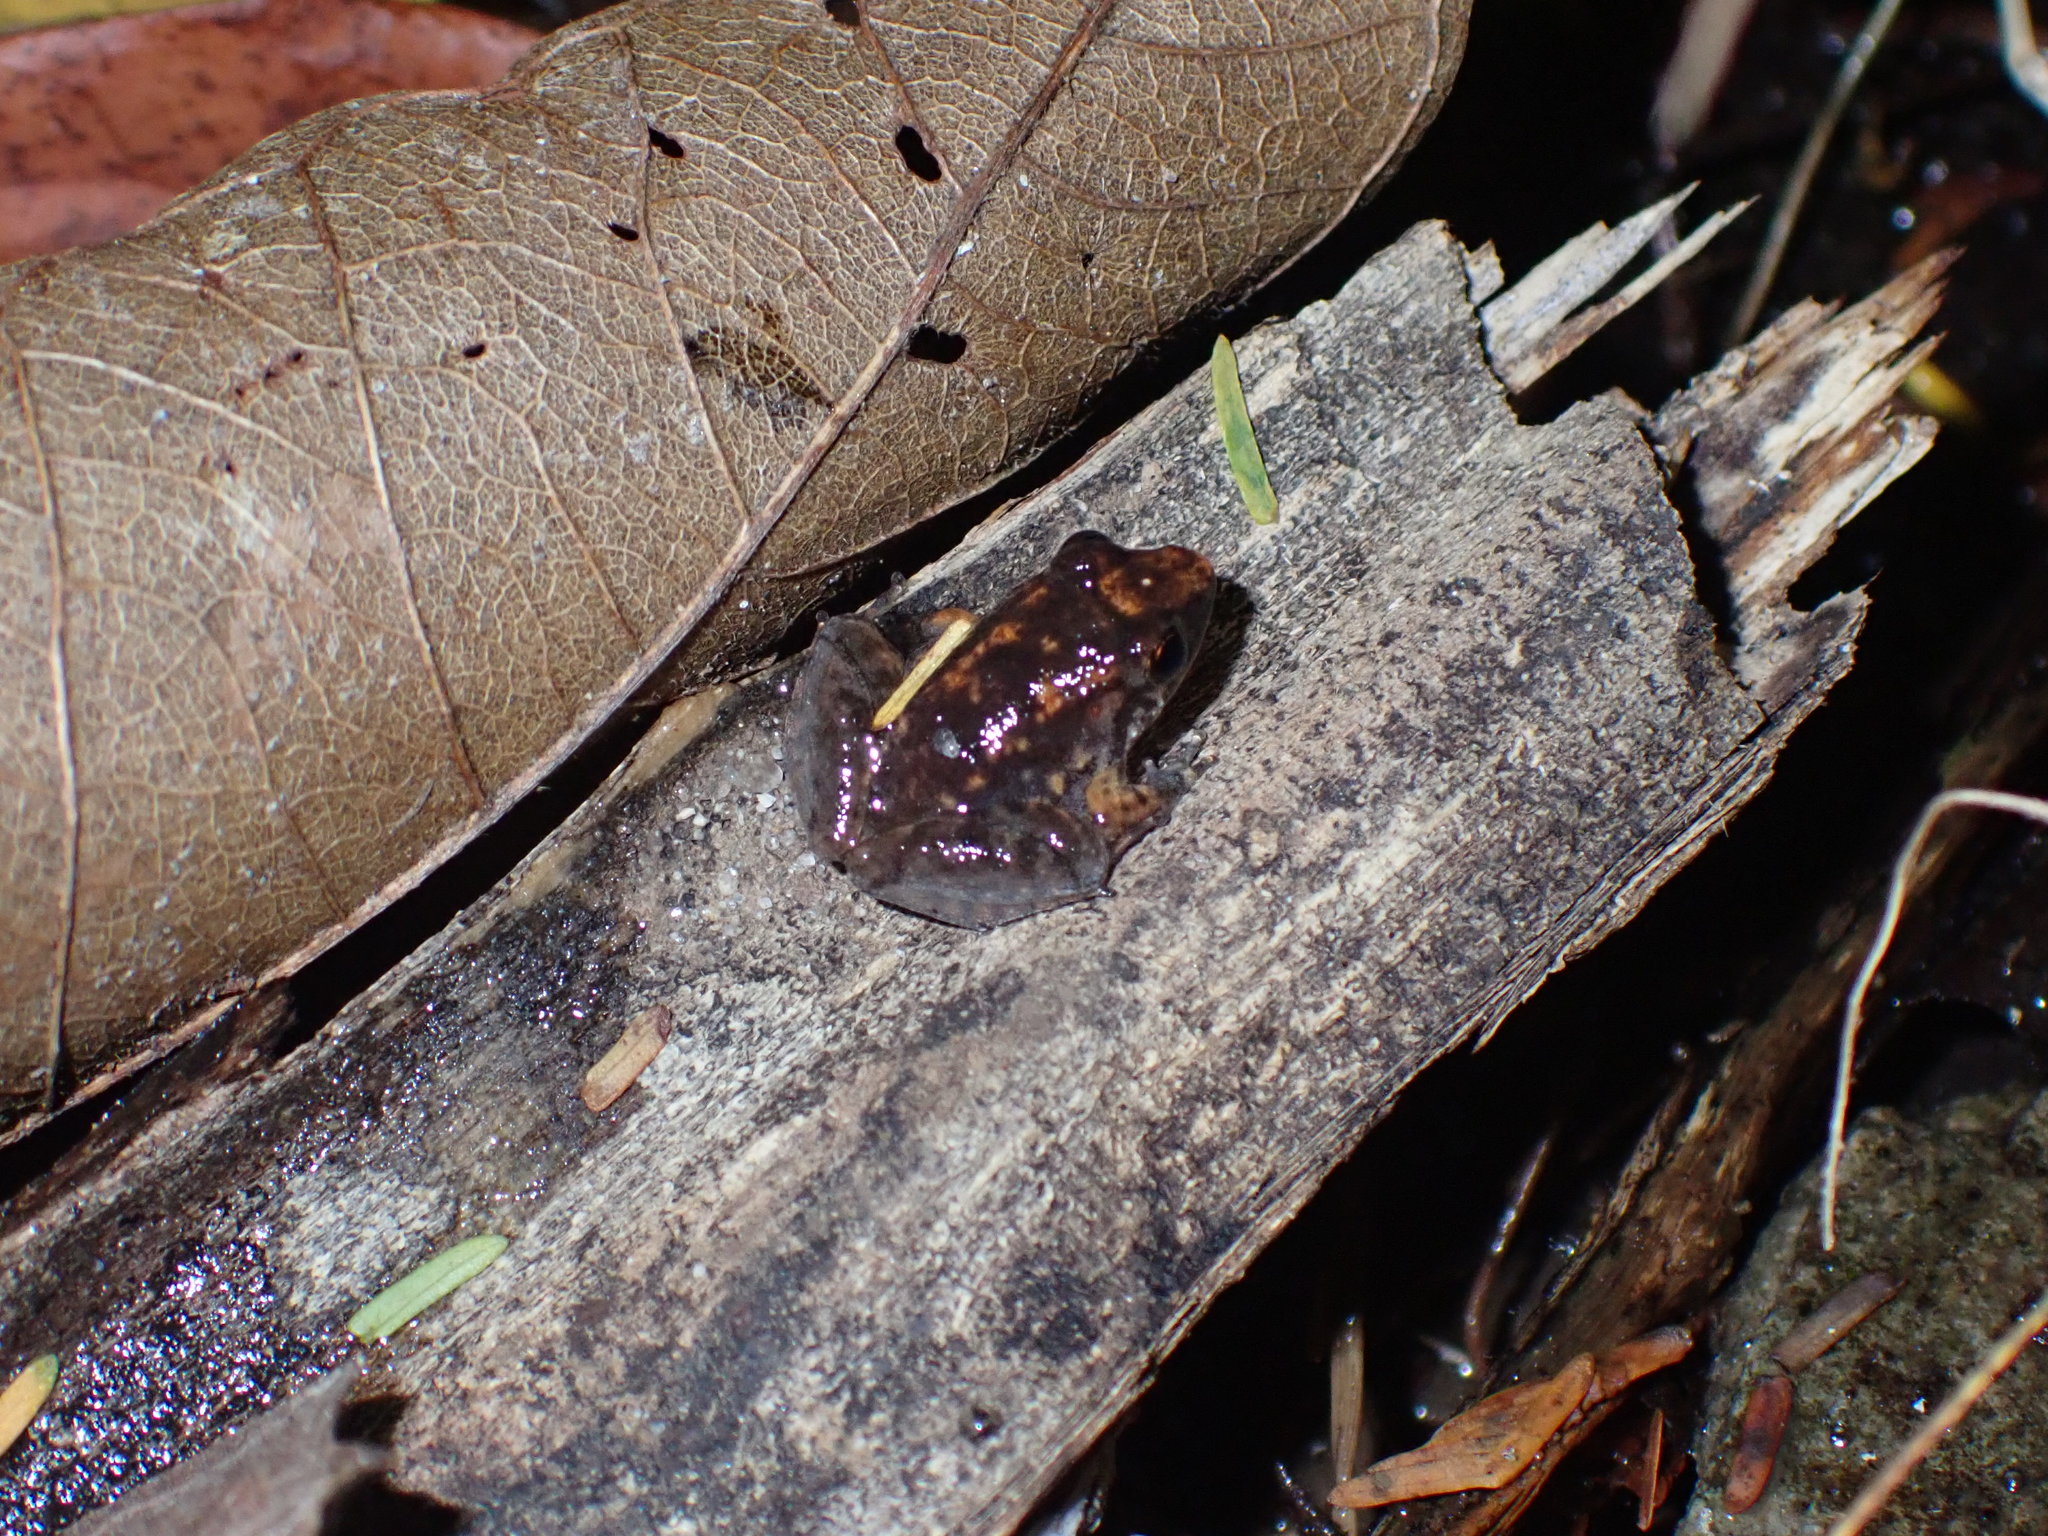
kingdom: Animalia
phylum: Chordata
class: Amphibia
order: Anura
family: Dicroglossidae
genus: Limnonectes
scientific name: Limnonectes hascheanus
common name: Hill forest frog
